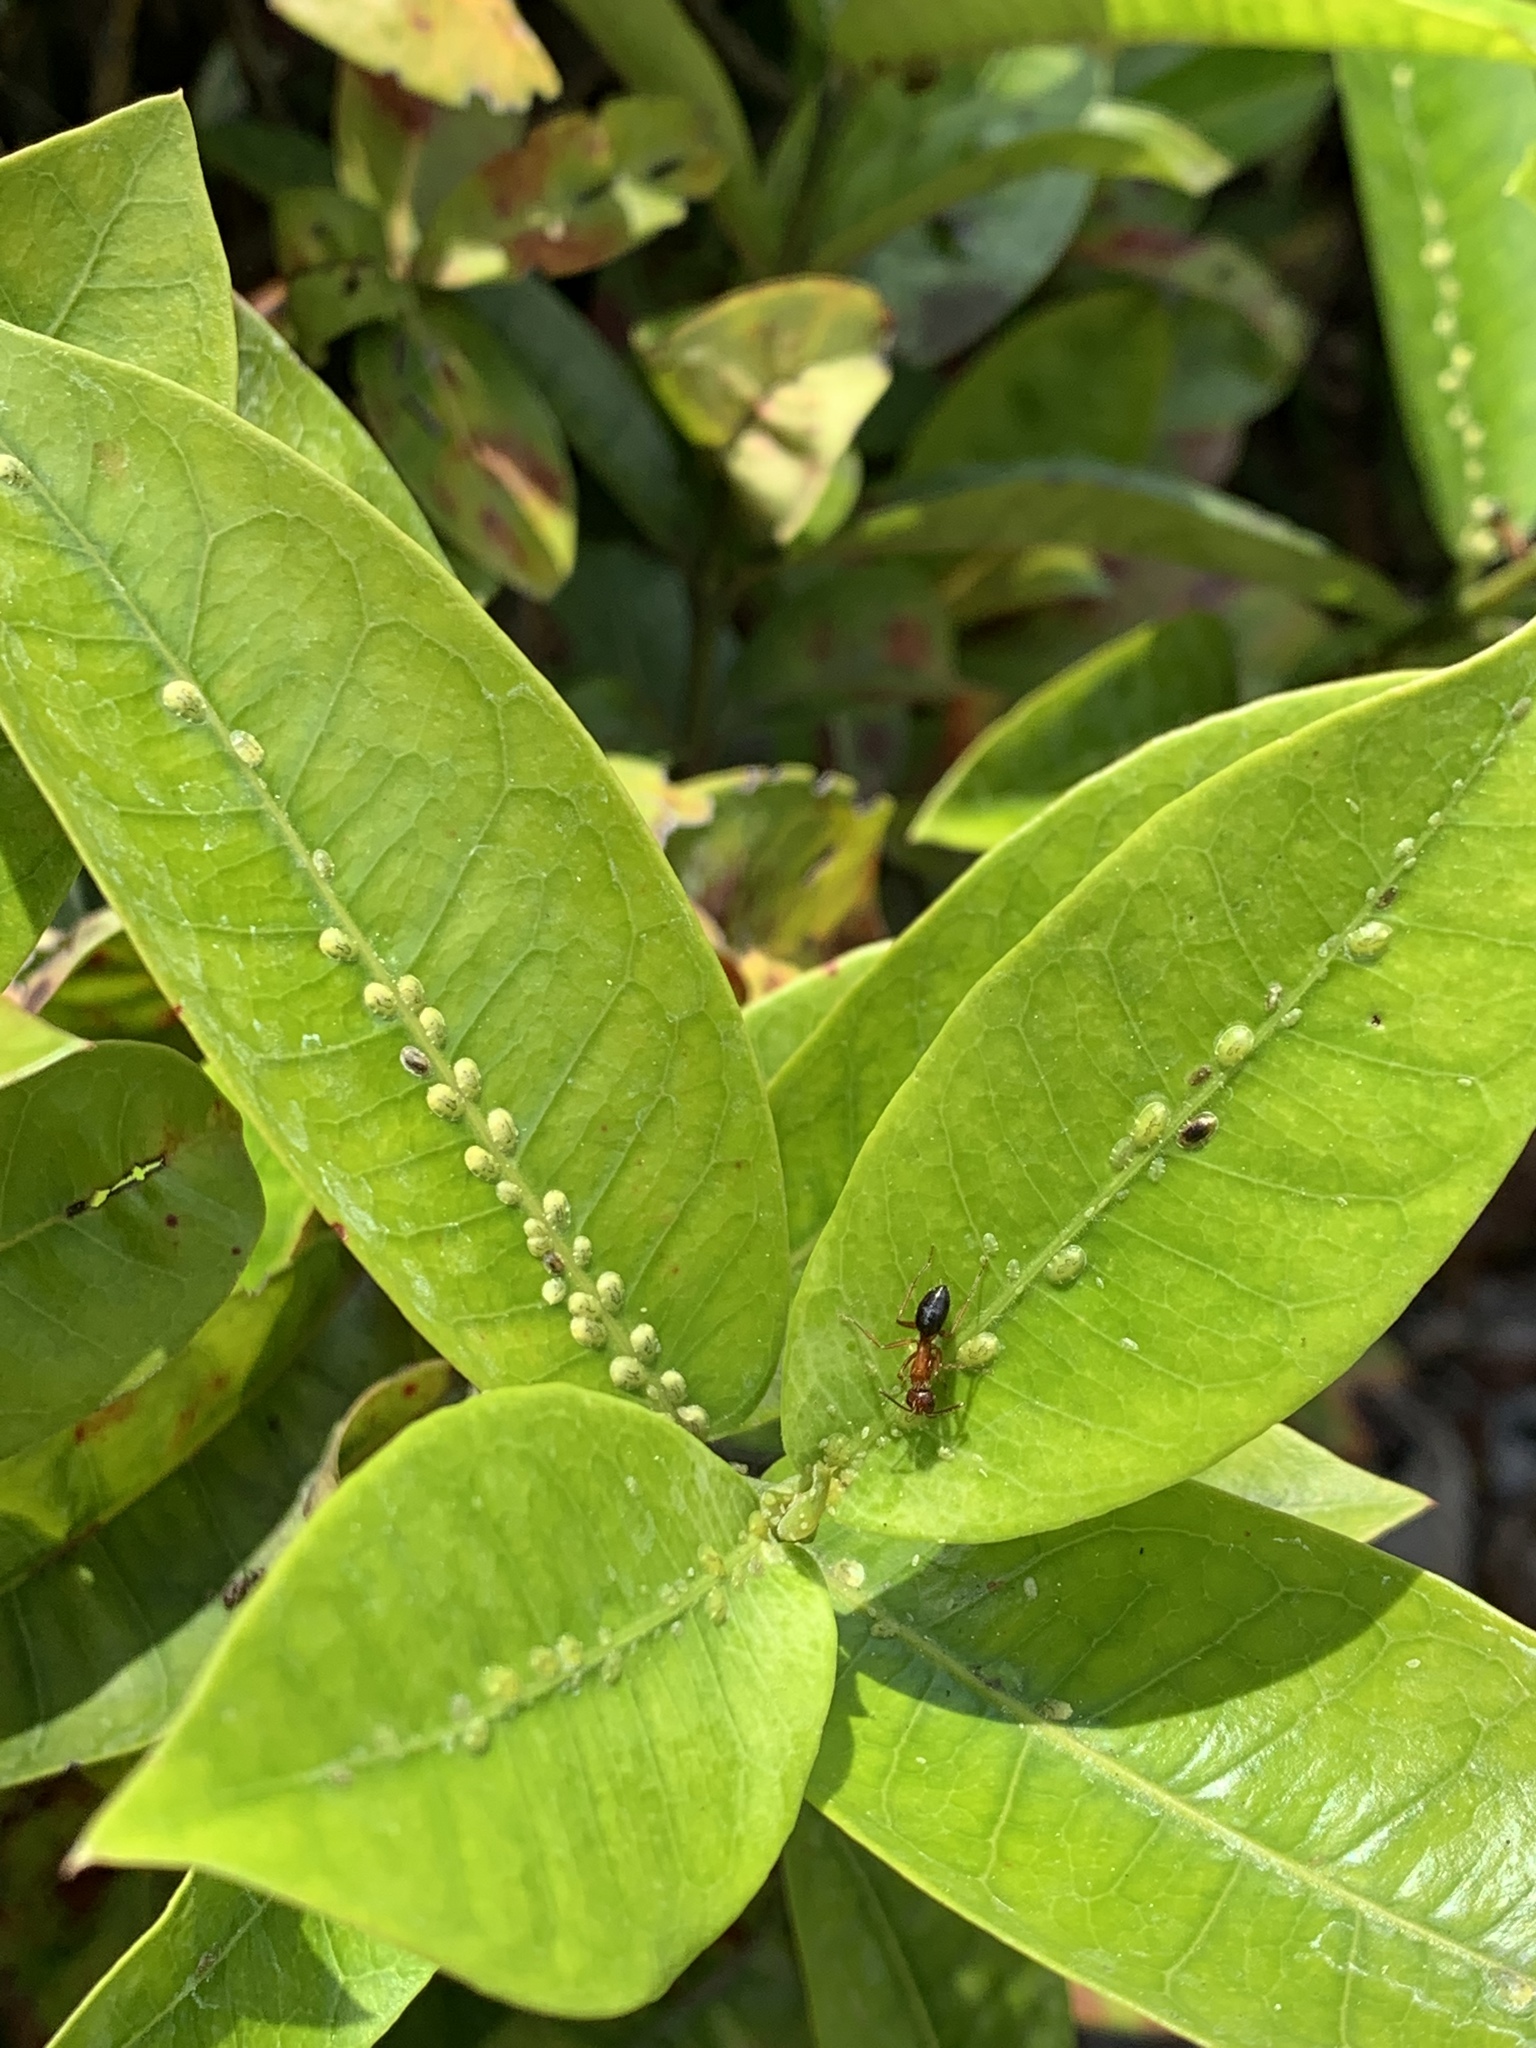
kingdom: Animalia
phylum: Arthropoda
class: Insecta
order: Hemiptera
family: Coccidae
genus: Coccus
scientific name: Coccus viridis
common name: Green scale
